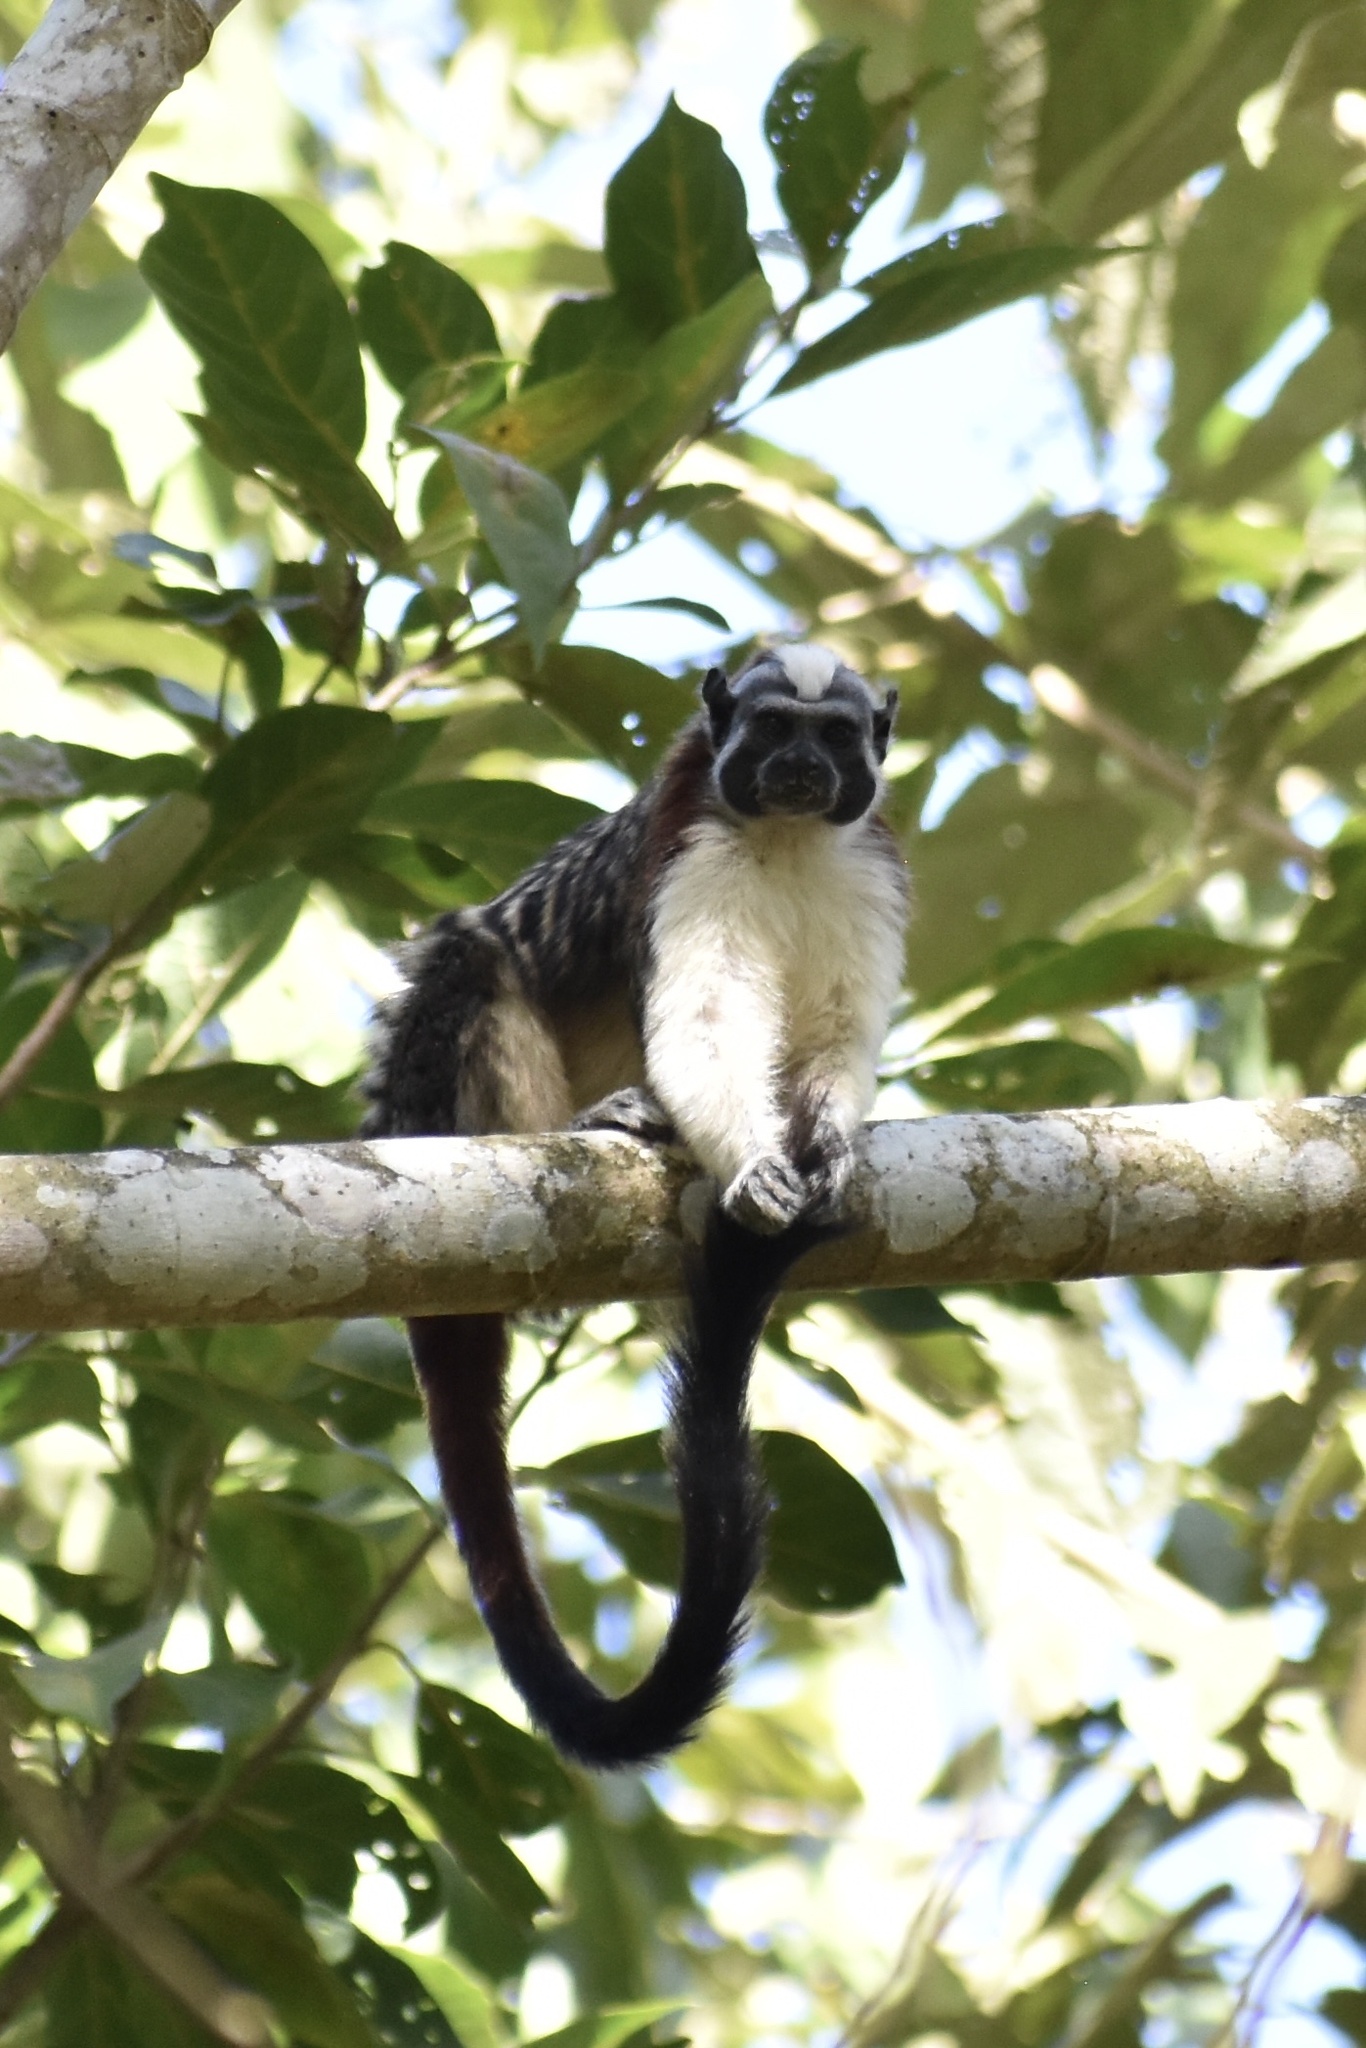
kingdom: Animalia
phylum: Chordata
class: Mammalia
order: Primates
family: Callitrichidae
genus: Saguinus
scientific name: Saguinus geoffroyi
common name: Geoffroy s tamarin
